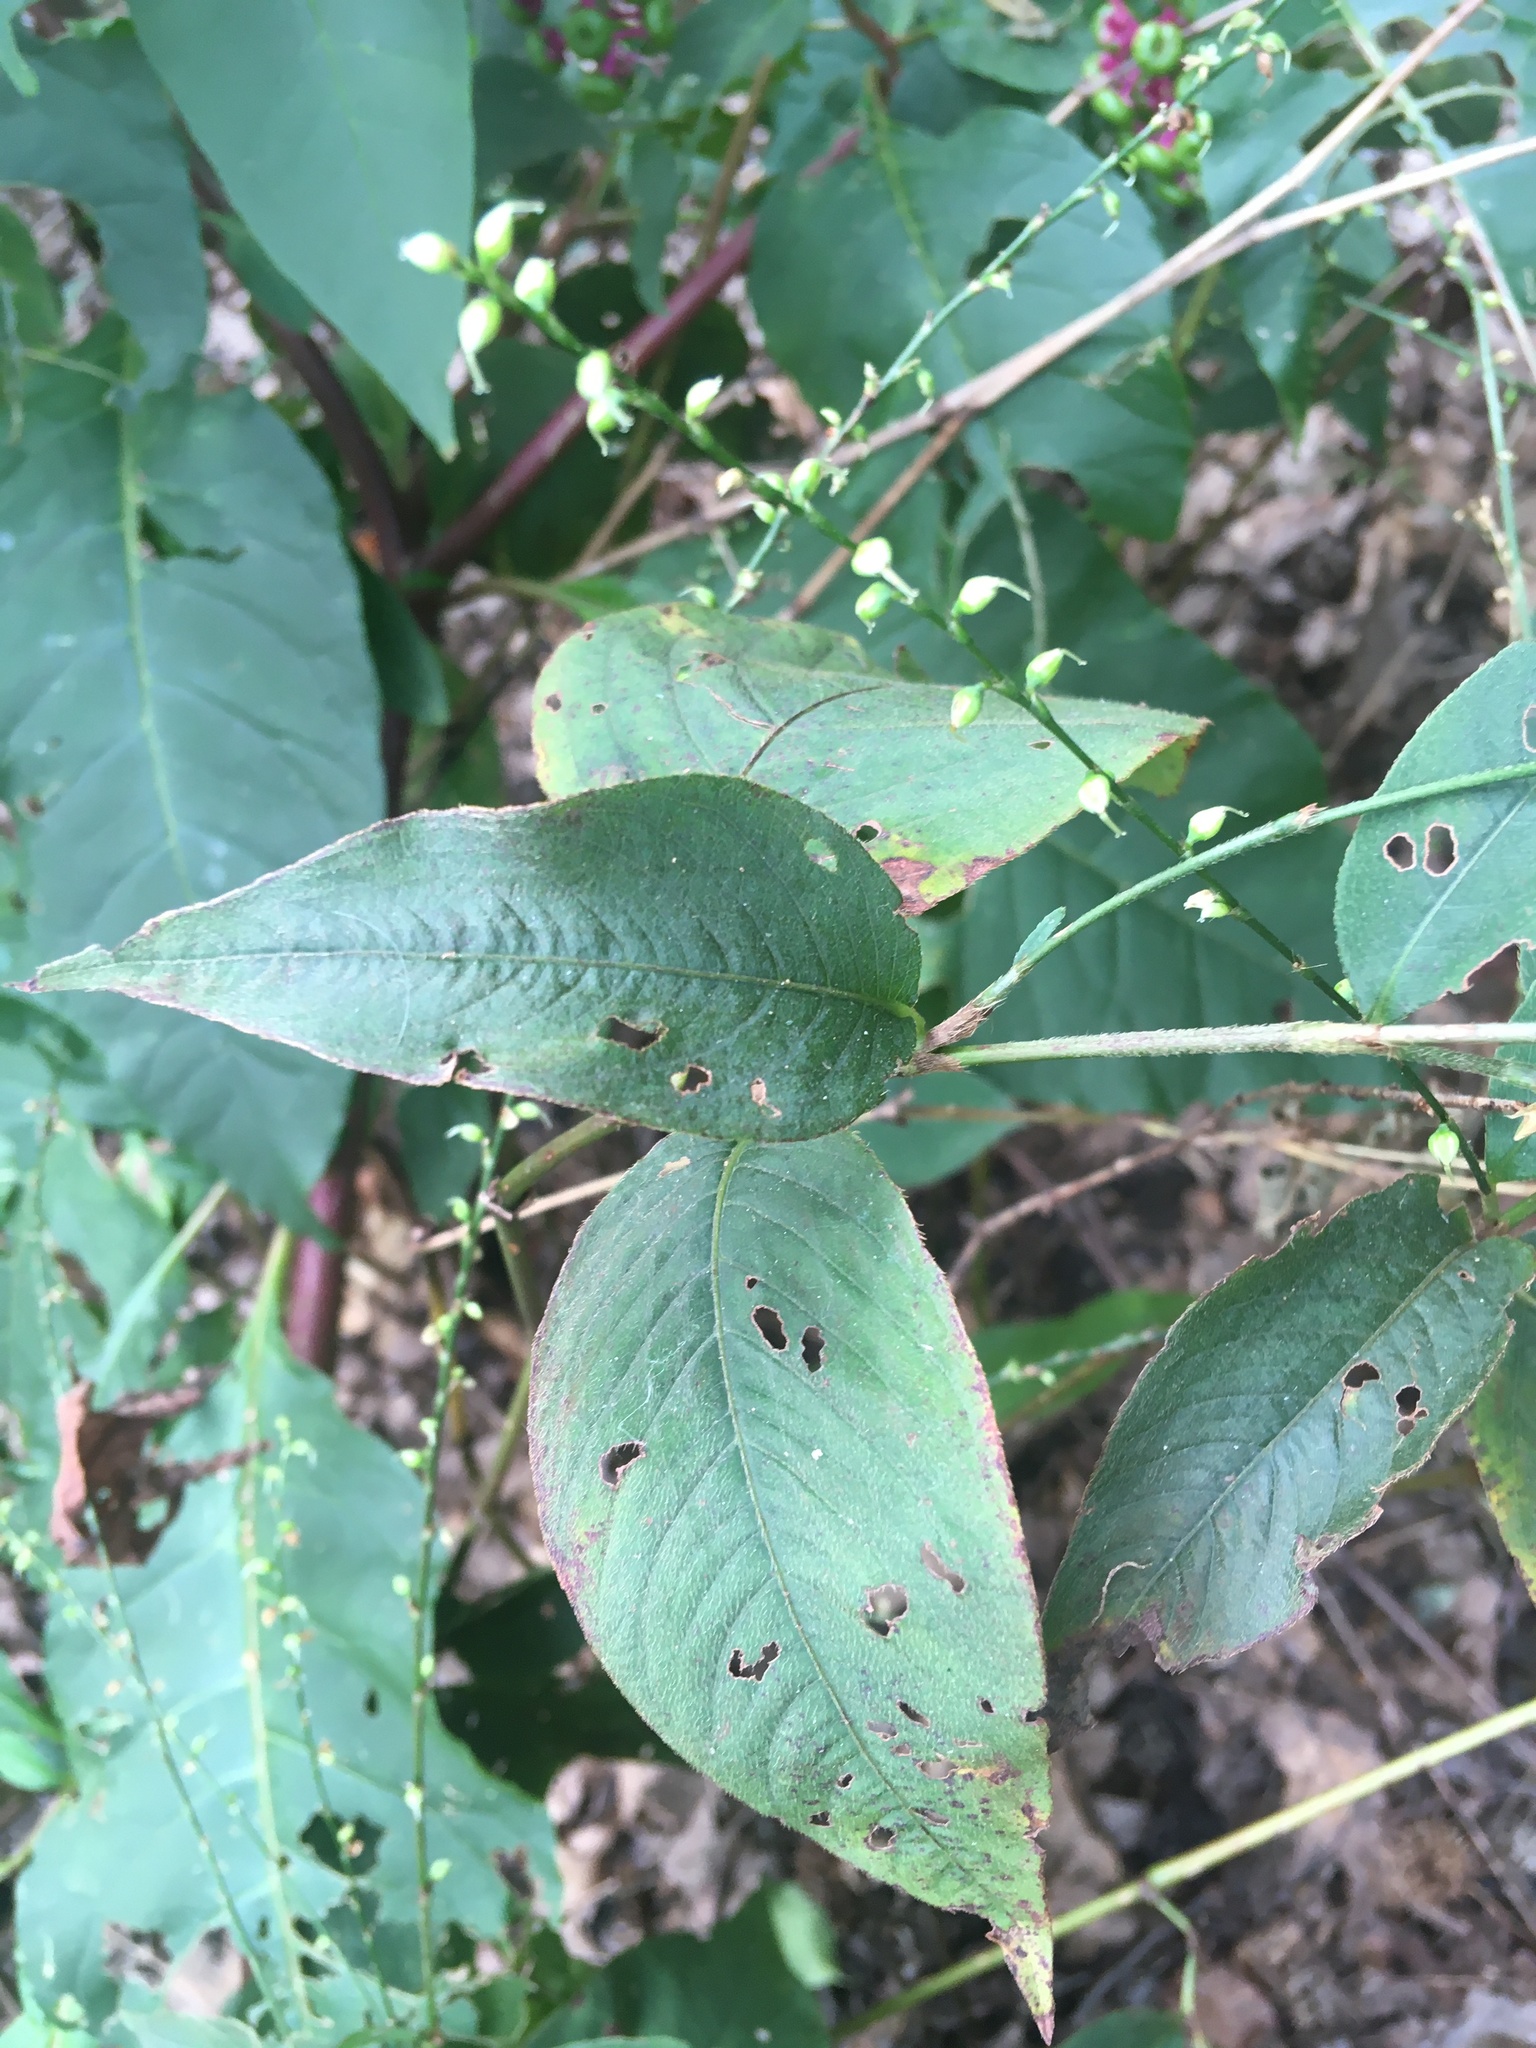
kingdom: Plantae
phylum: Tracheophyta
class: Magnoliopsida
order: Caryophyllales
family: Polygonaceae
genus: Persicaria
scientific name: Persicaria virginiana
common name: Jumpseed
